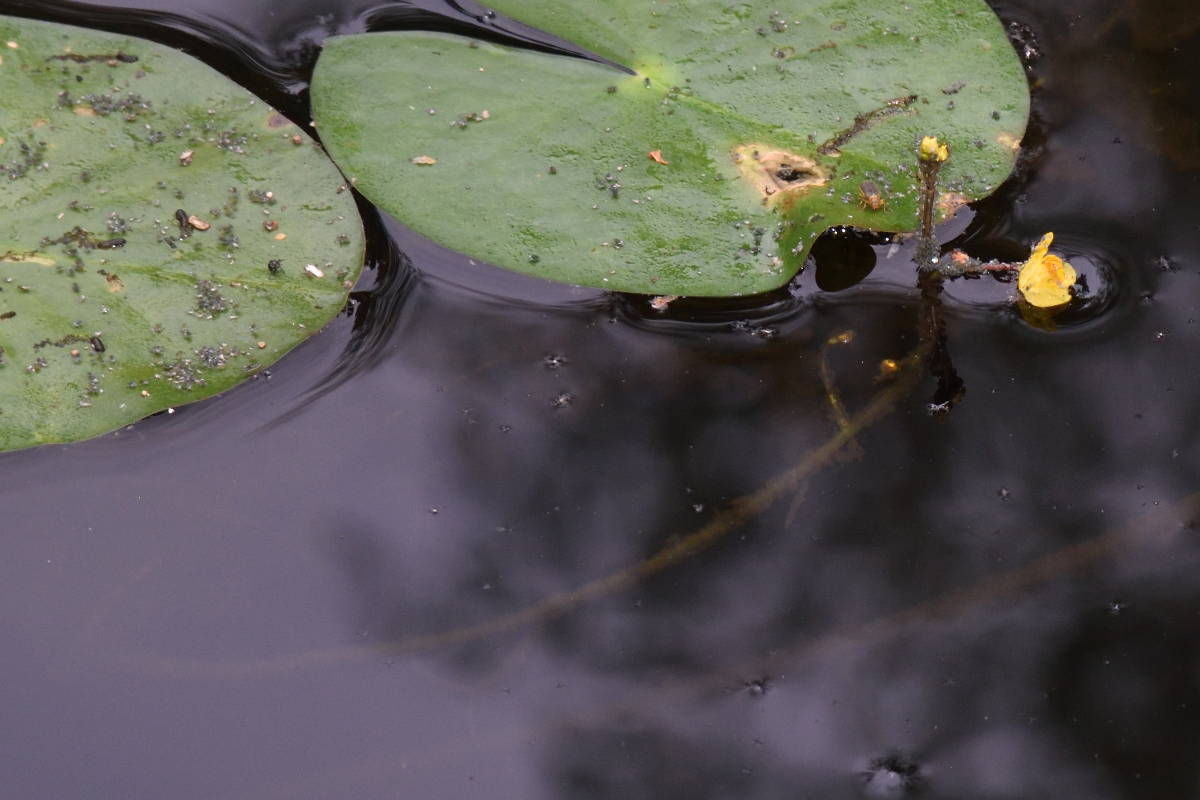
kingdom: Plantae
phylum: Tracheophyta
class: Magnoliopsida
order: Lamiales
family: Lentibulariaceae
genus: Utricularia
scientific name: Utricularia australis
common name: Bladderwort
